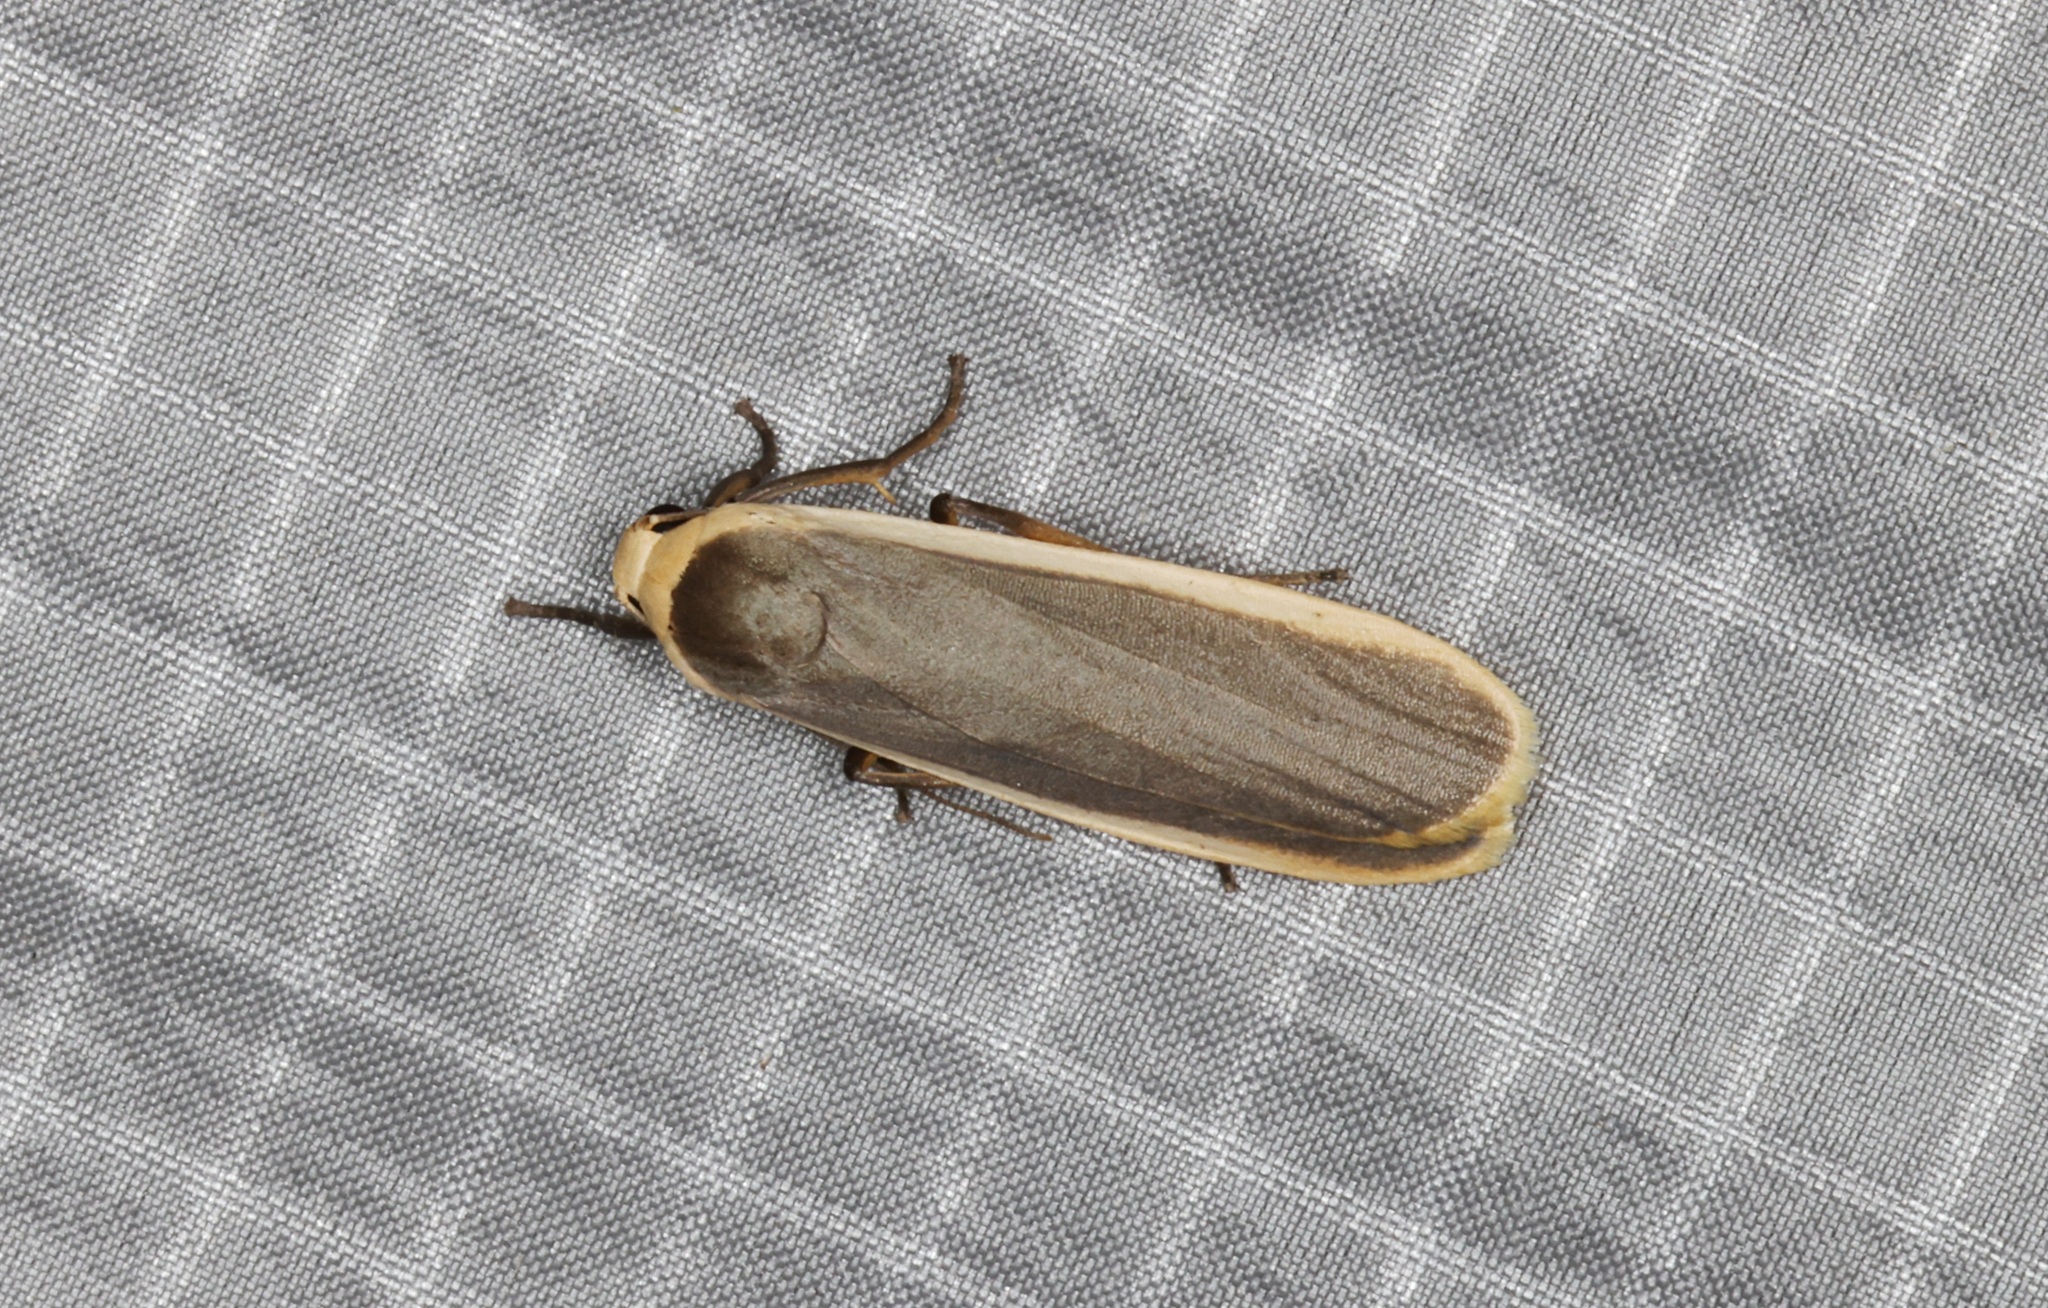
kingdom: Animalia
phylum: Arthropoda
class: Insecta
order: Lepidoptera
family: Erebidae
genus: Brunia
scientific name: Brunia antica
